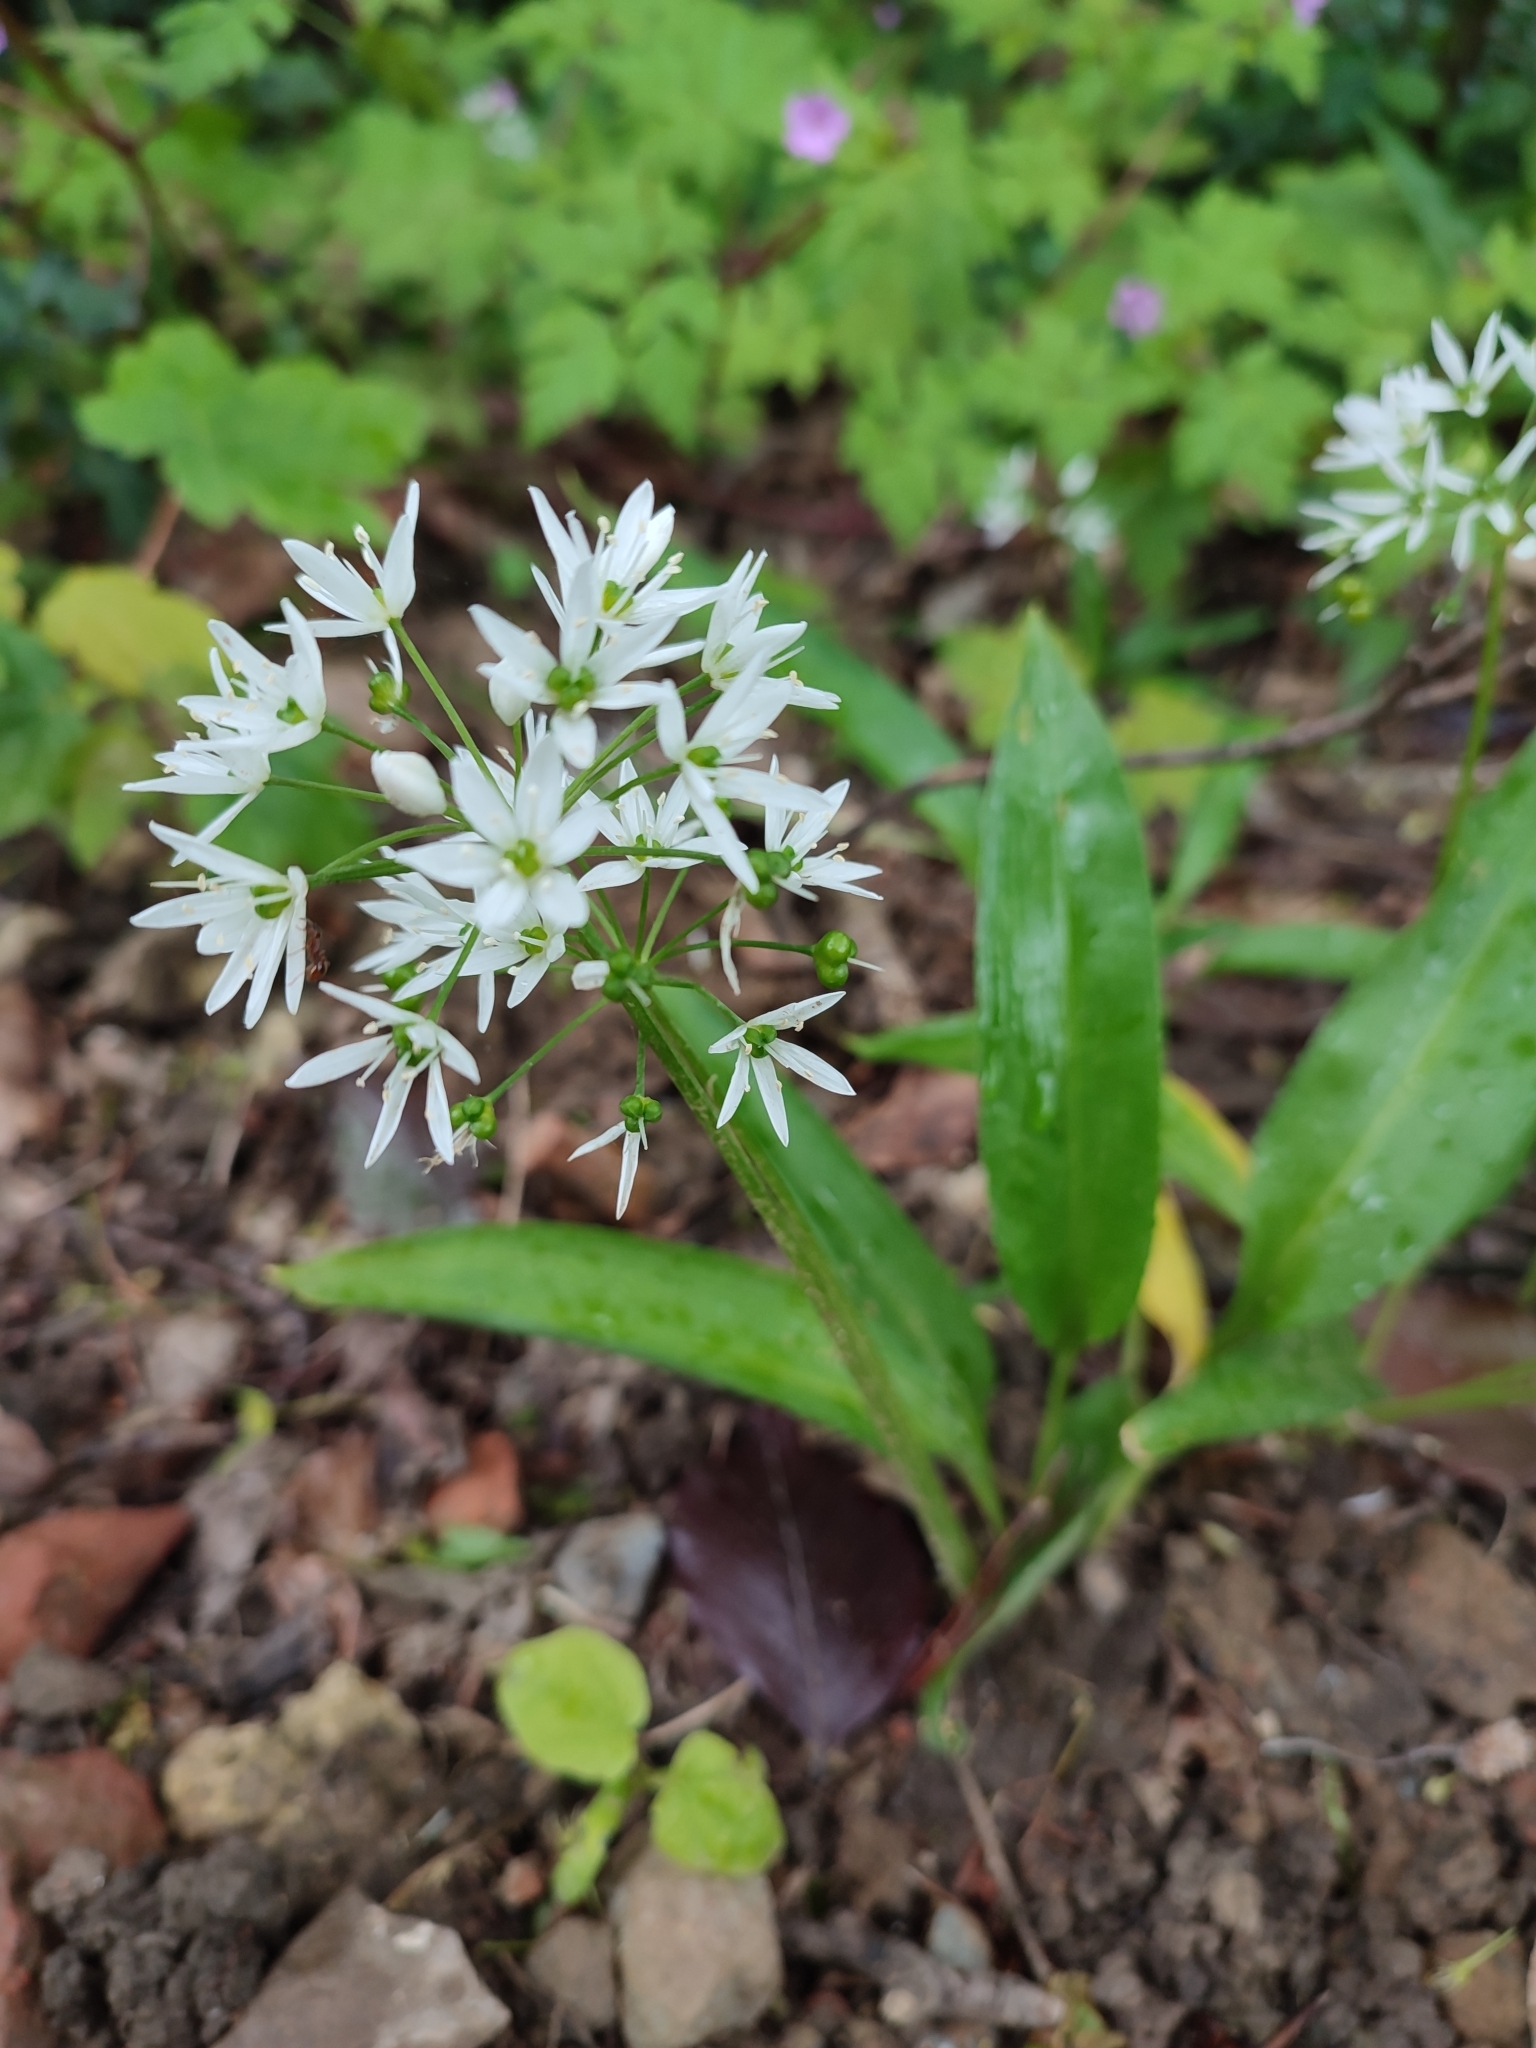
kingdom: Plantae
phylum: Tracheophyta
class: Liliopsida
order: Asparagales
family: Amaryllidaceae
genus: Allium
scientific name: Allium ursinum
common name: Ramsons
